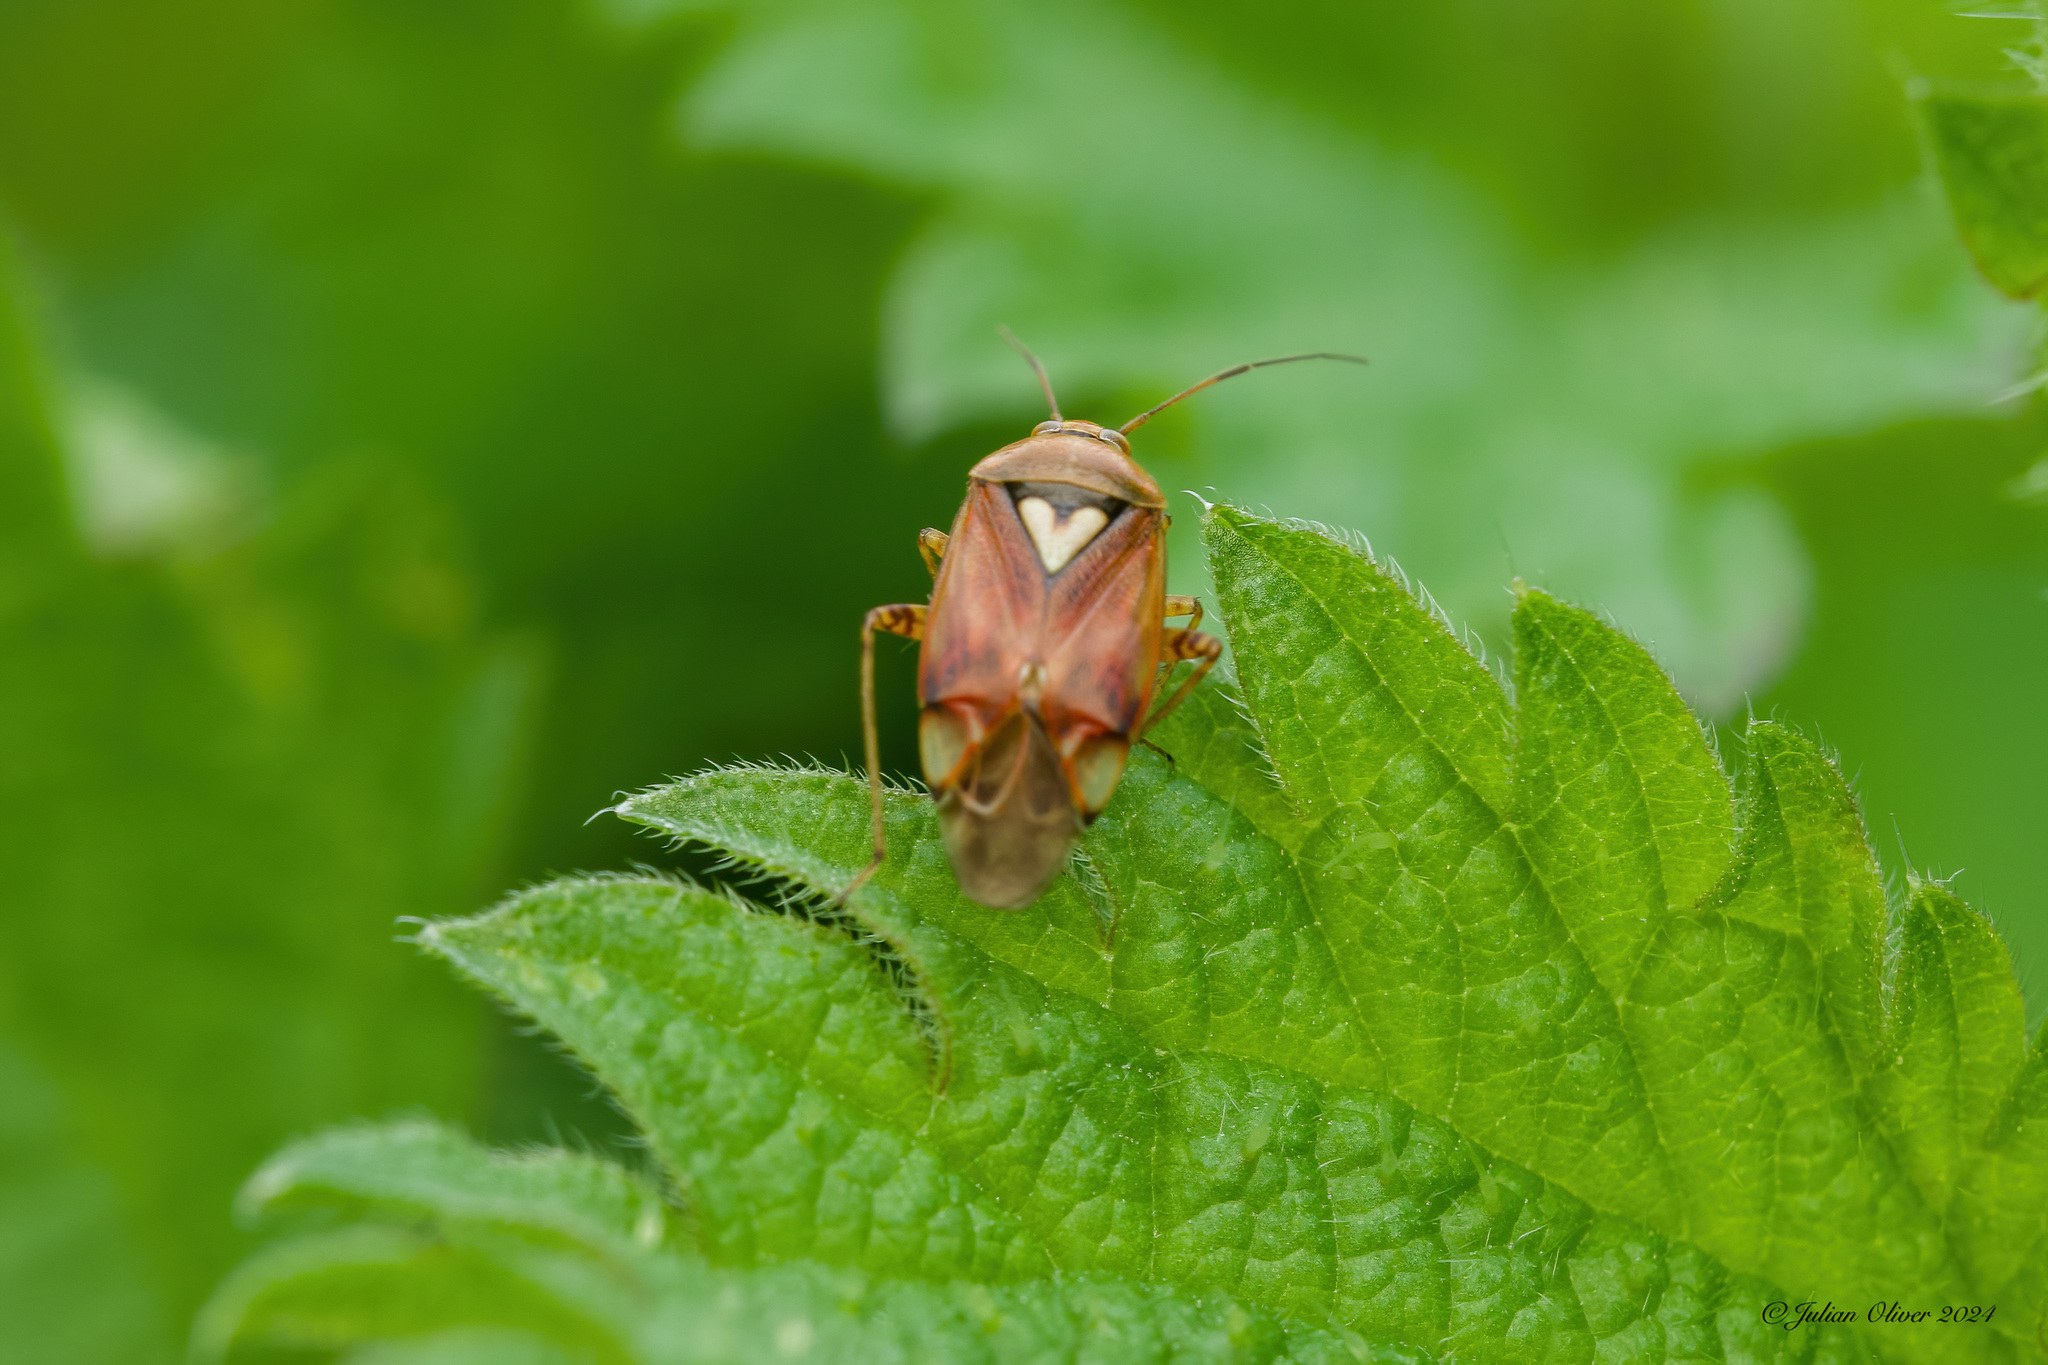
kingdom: Animalia
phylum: Arthropoda
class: Insecta
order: Hemiptera
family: Miridae
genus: Lygus
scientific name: Lygus pratensis
